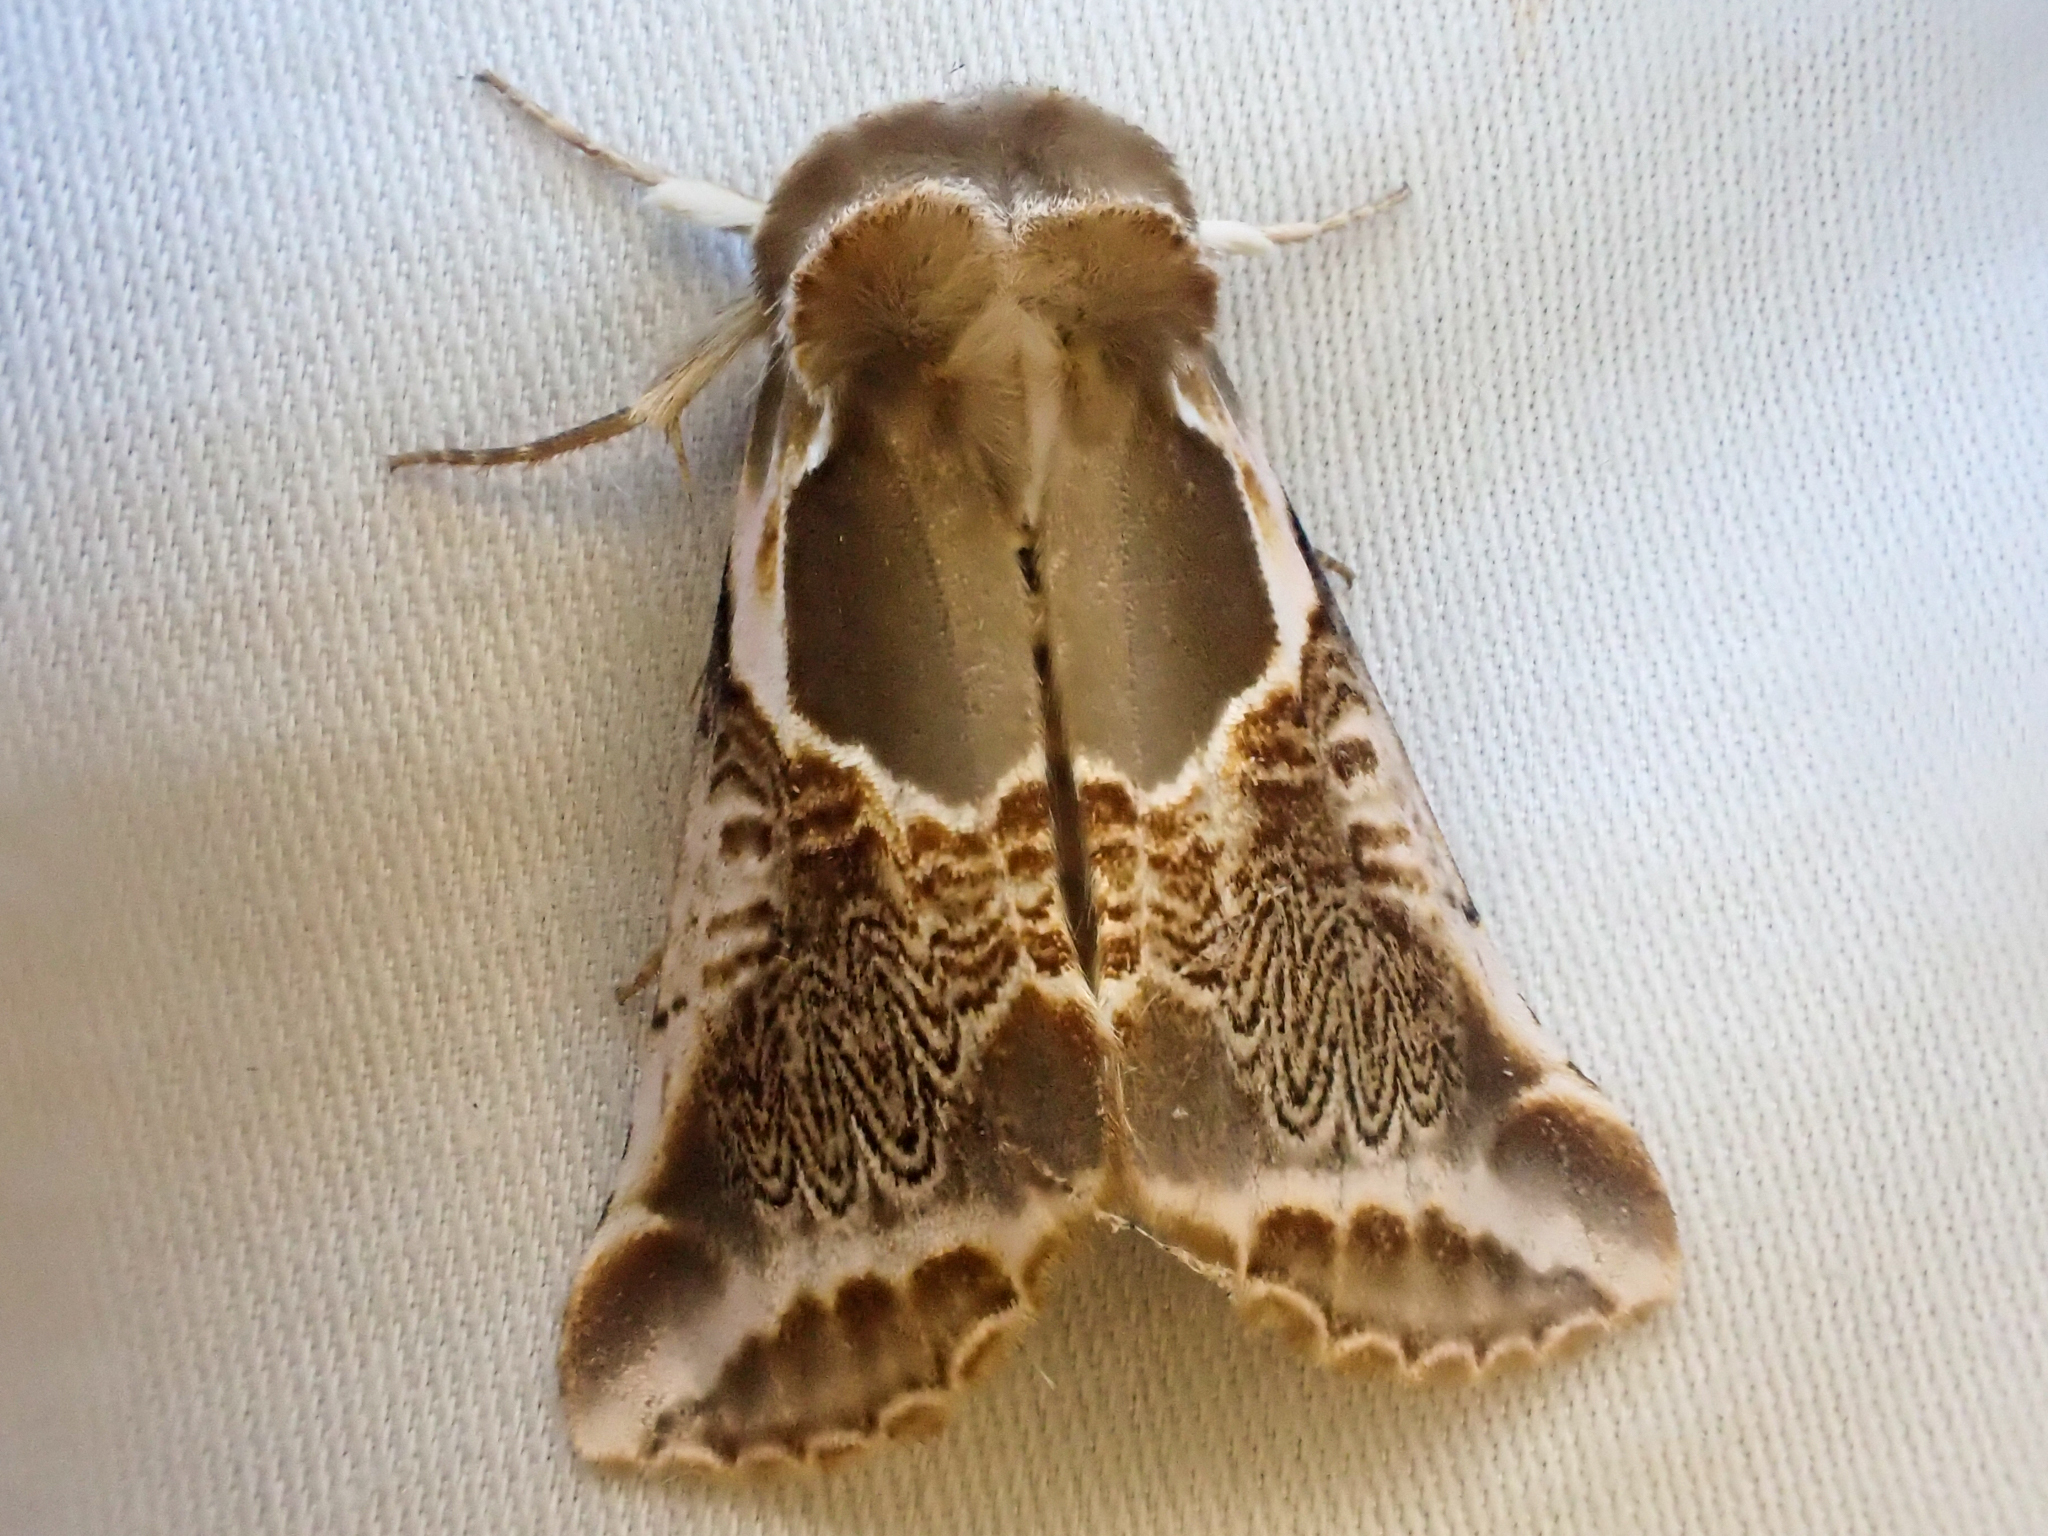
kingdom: Animalia
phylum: Arthropoda
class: Insecta
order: Lepidoptera
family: Drepanidae
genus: Habrosyne
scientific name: Habrosyne scripta
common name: Lettered habrosyne moth
